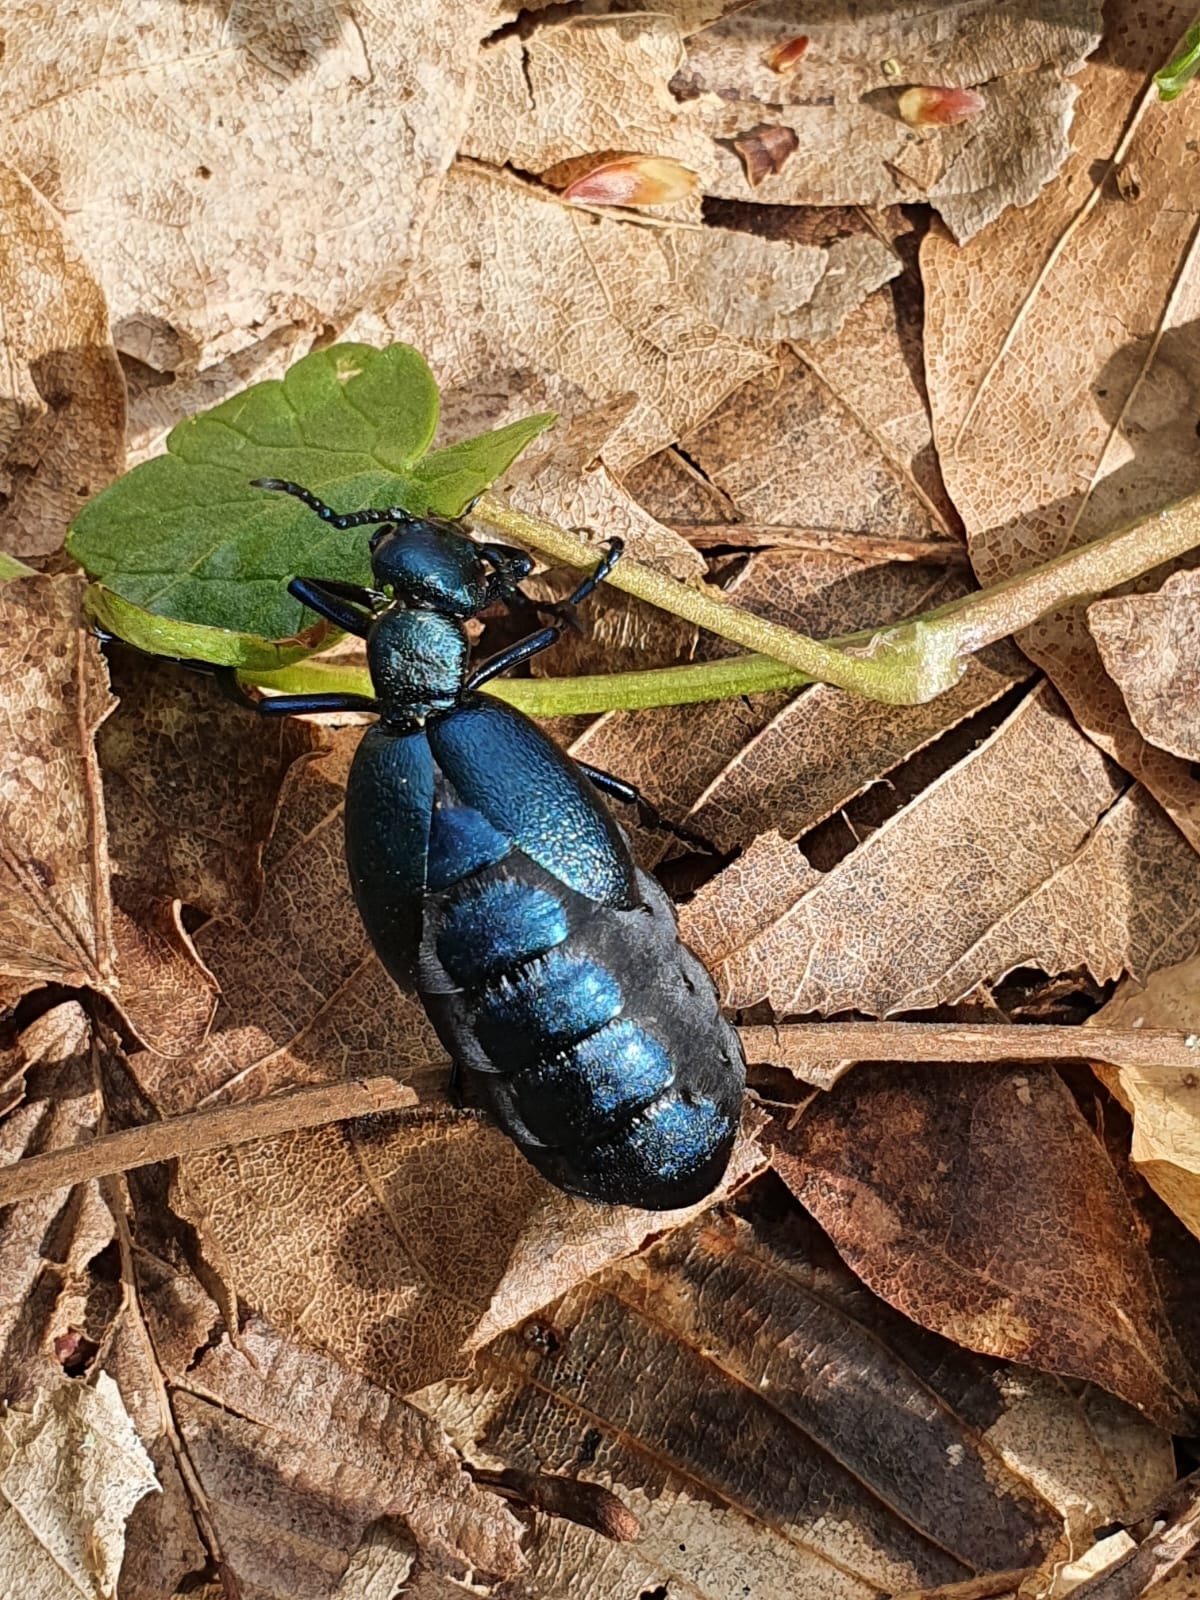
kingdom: Animalia
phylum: Arthropoda
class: Insecta
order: Coleoptera
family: Meloidae
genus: Meloe
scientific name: Meloe violaceus
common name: Violet oil-beetle
